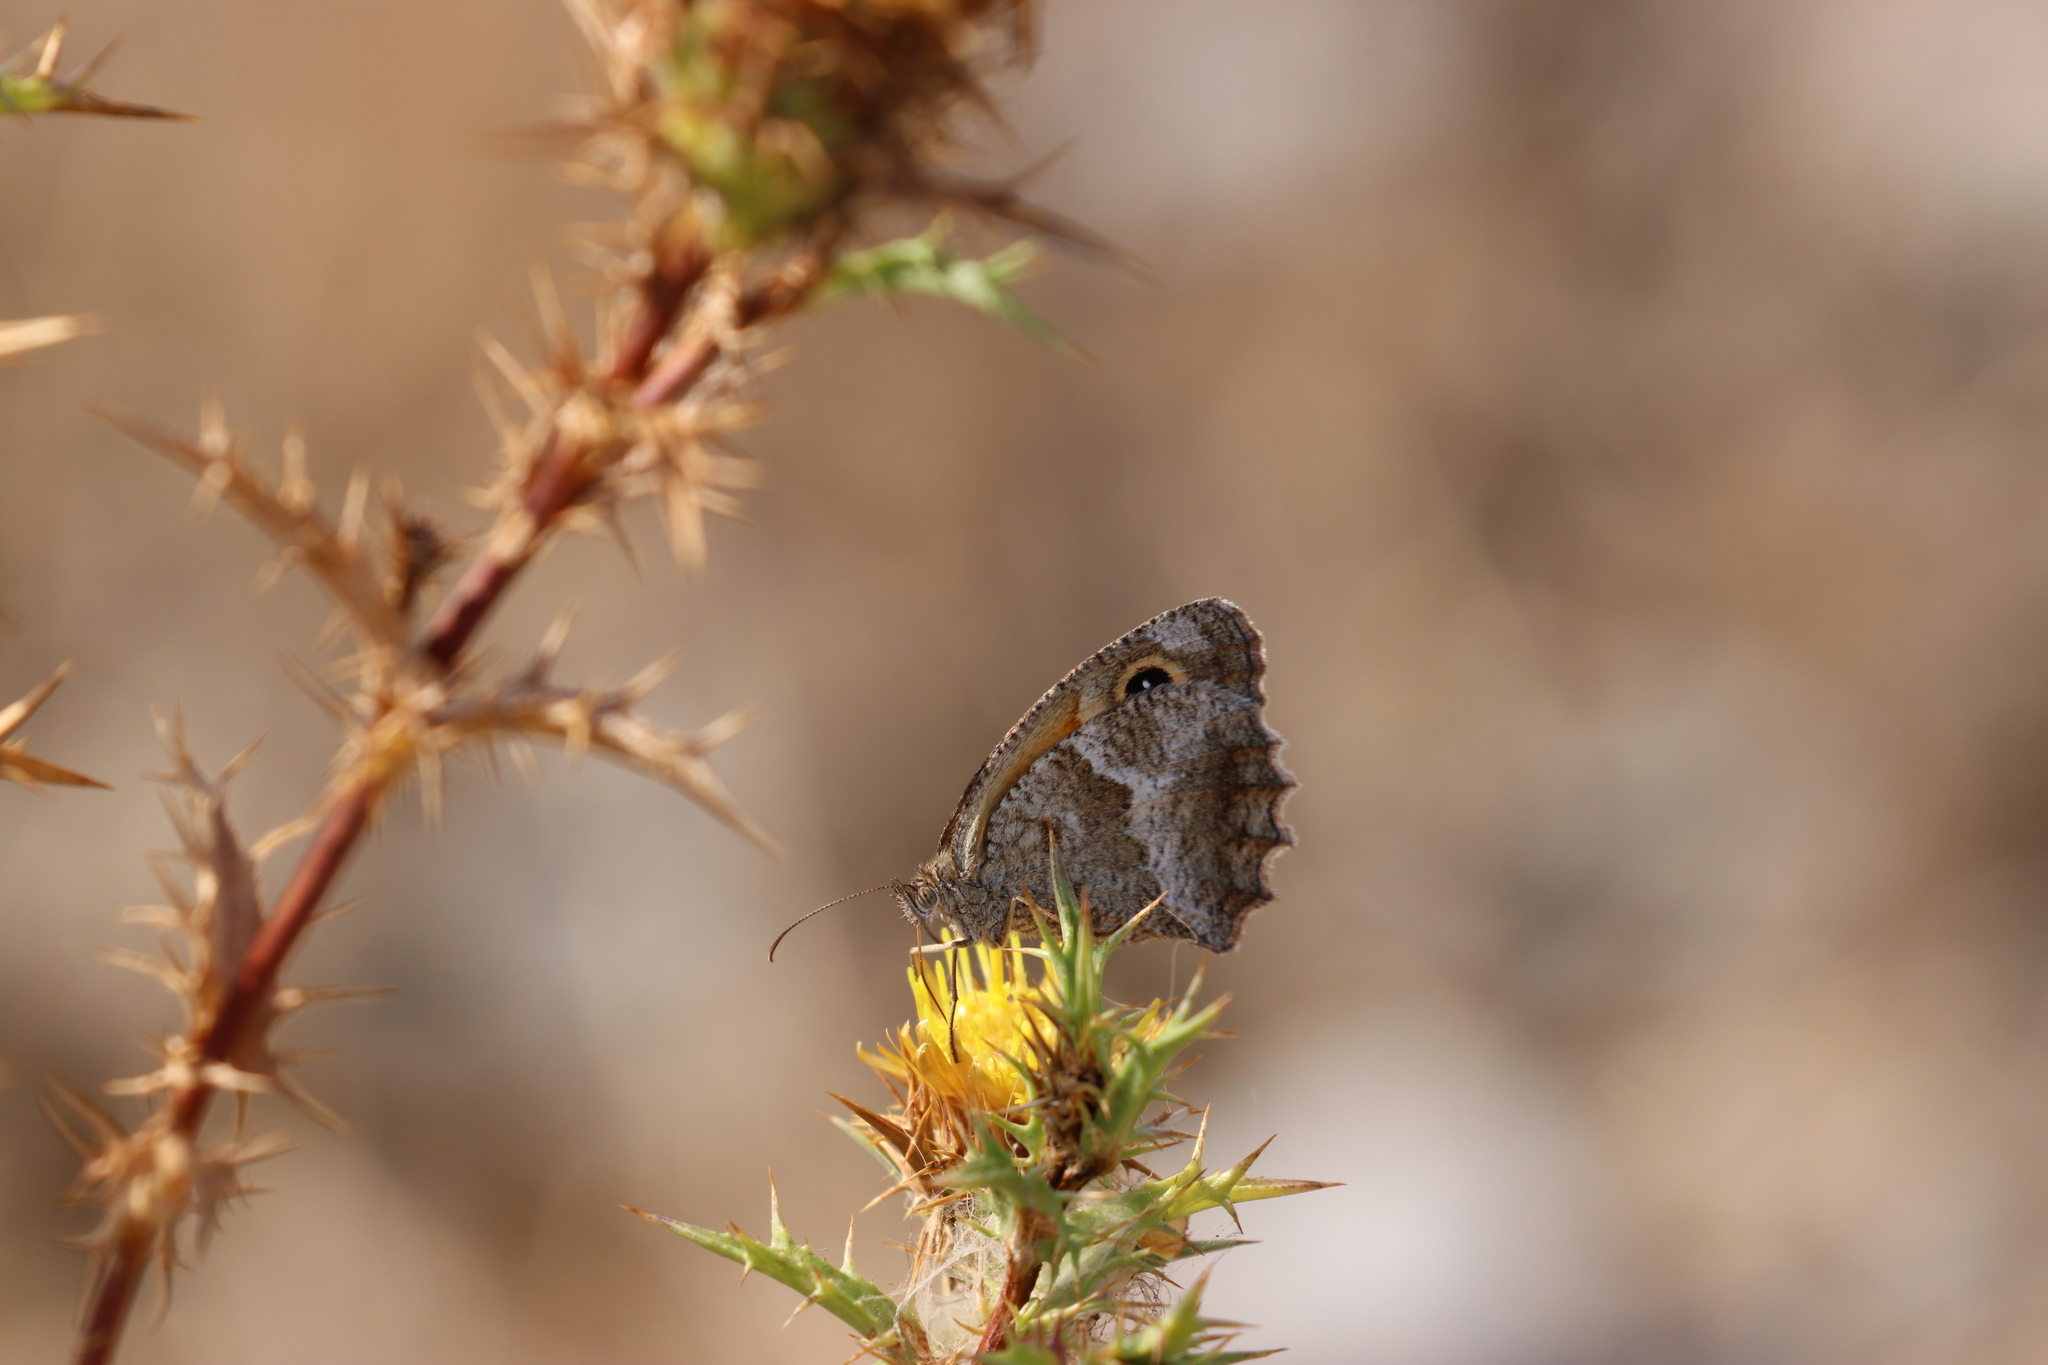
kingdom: Animalia
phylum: Arthropoda
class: Insecta
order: Lepidoptera
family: Nymphalidae
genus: Pyronia
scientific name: Pyronia cecilia
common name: Southern gatekeeper
